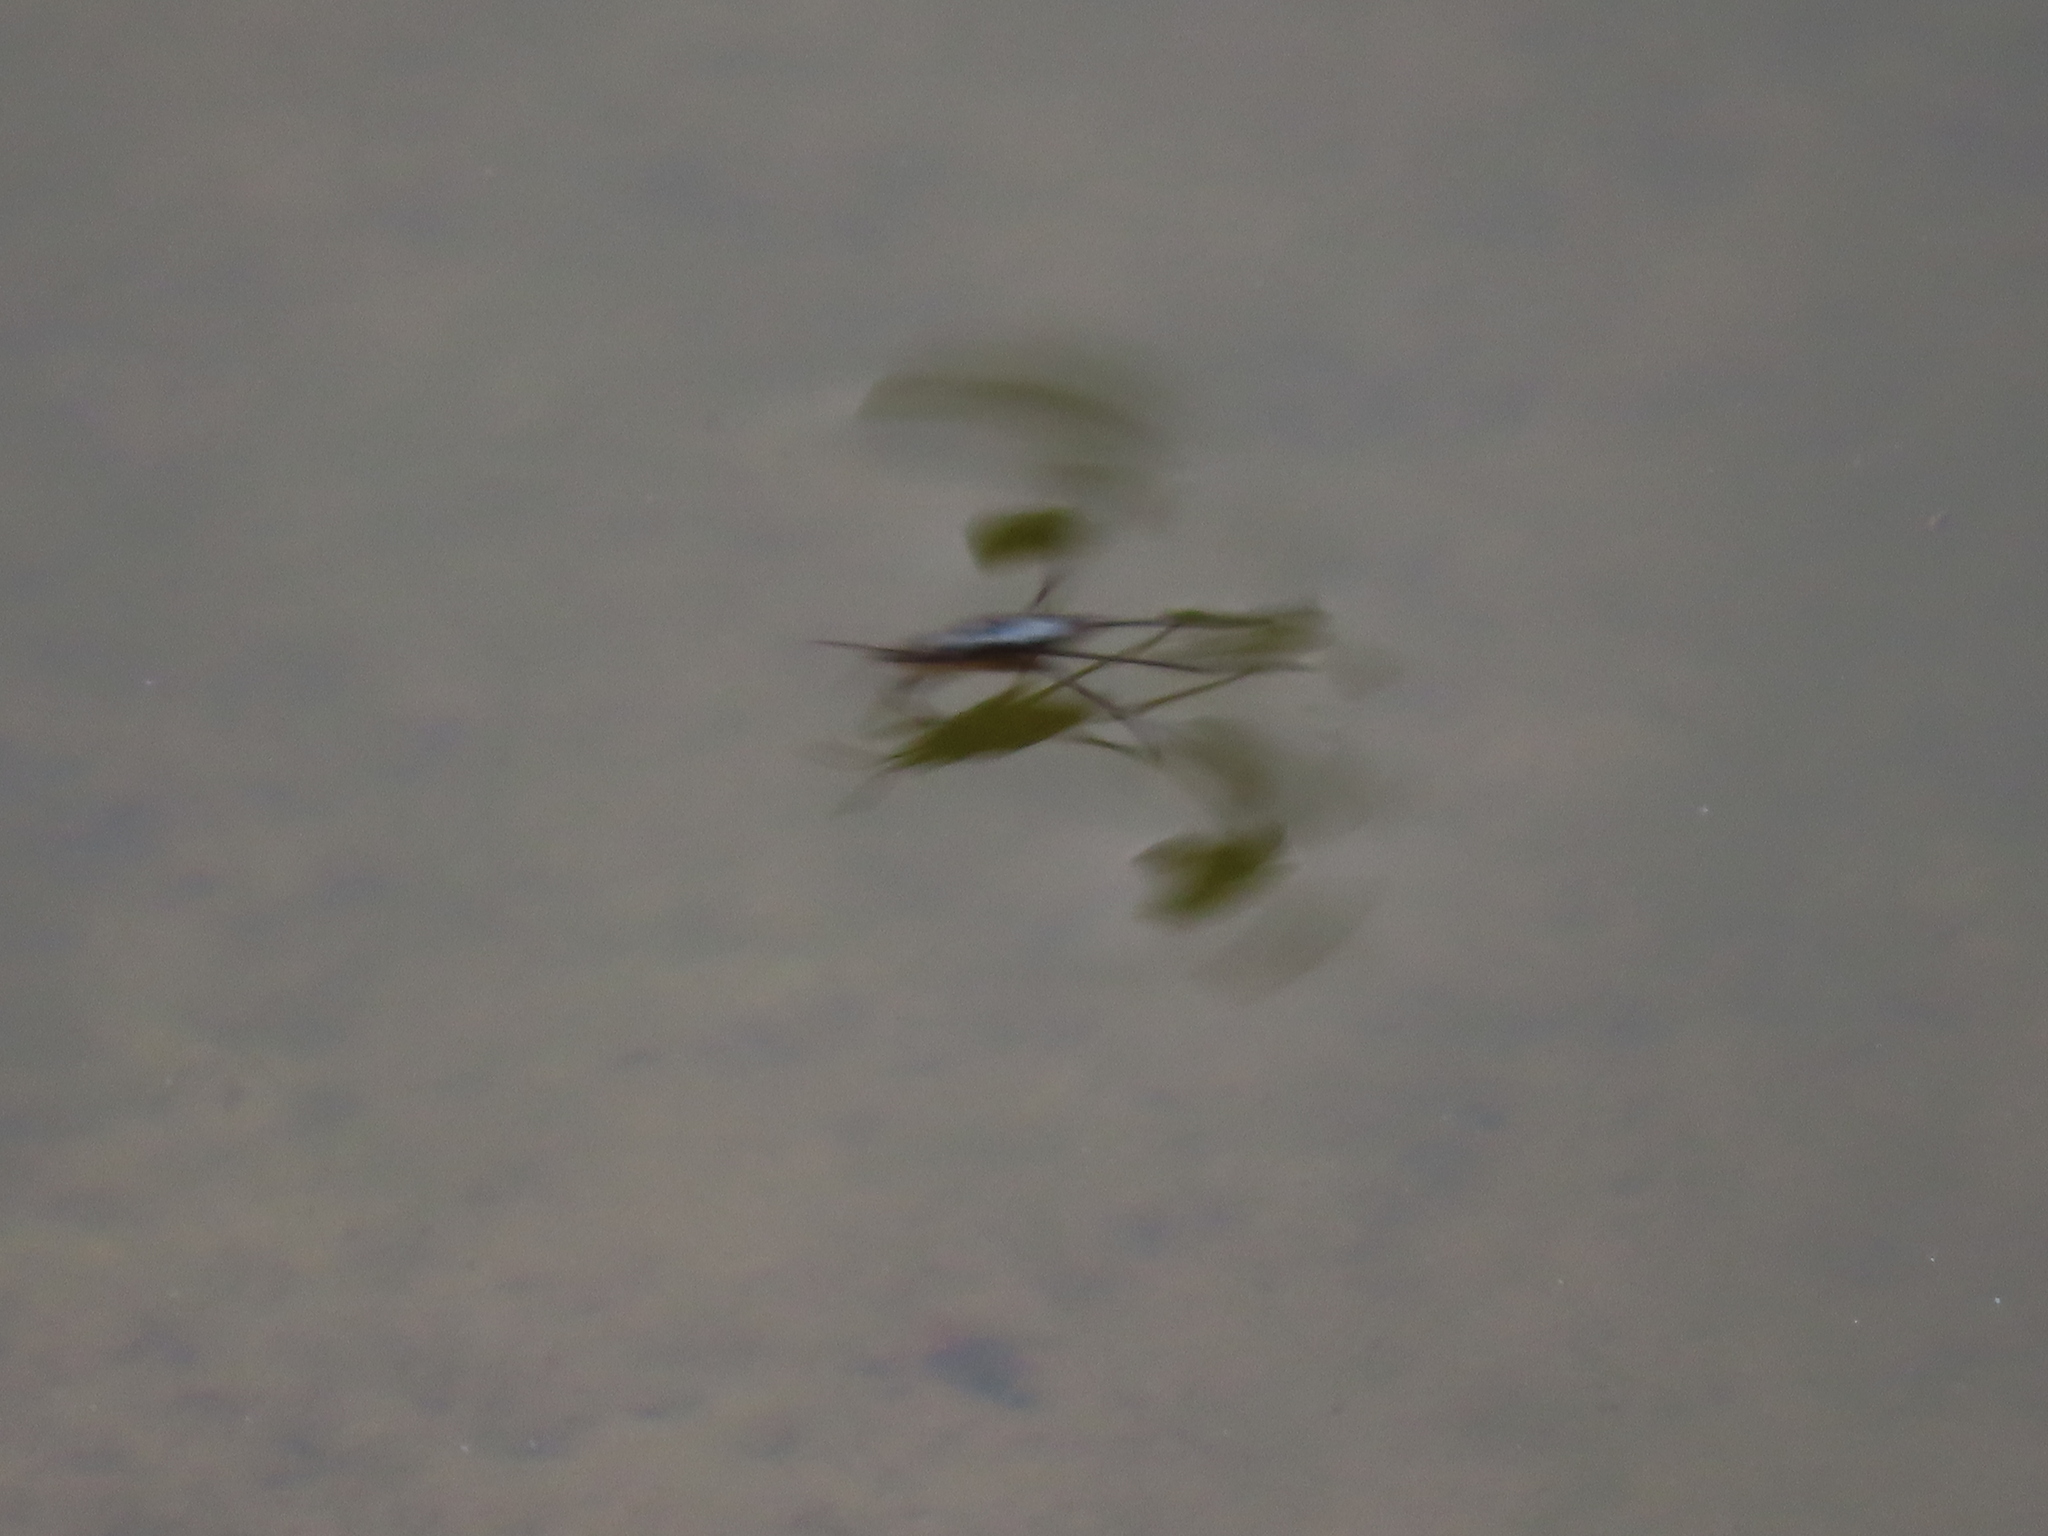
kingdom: Animalia
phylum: Arthropoda
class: Insecta
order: Hemiptera
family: Gerridae
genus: Gerris
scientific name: Gerris
